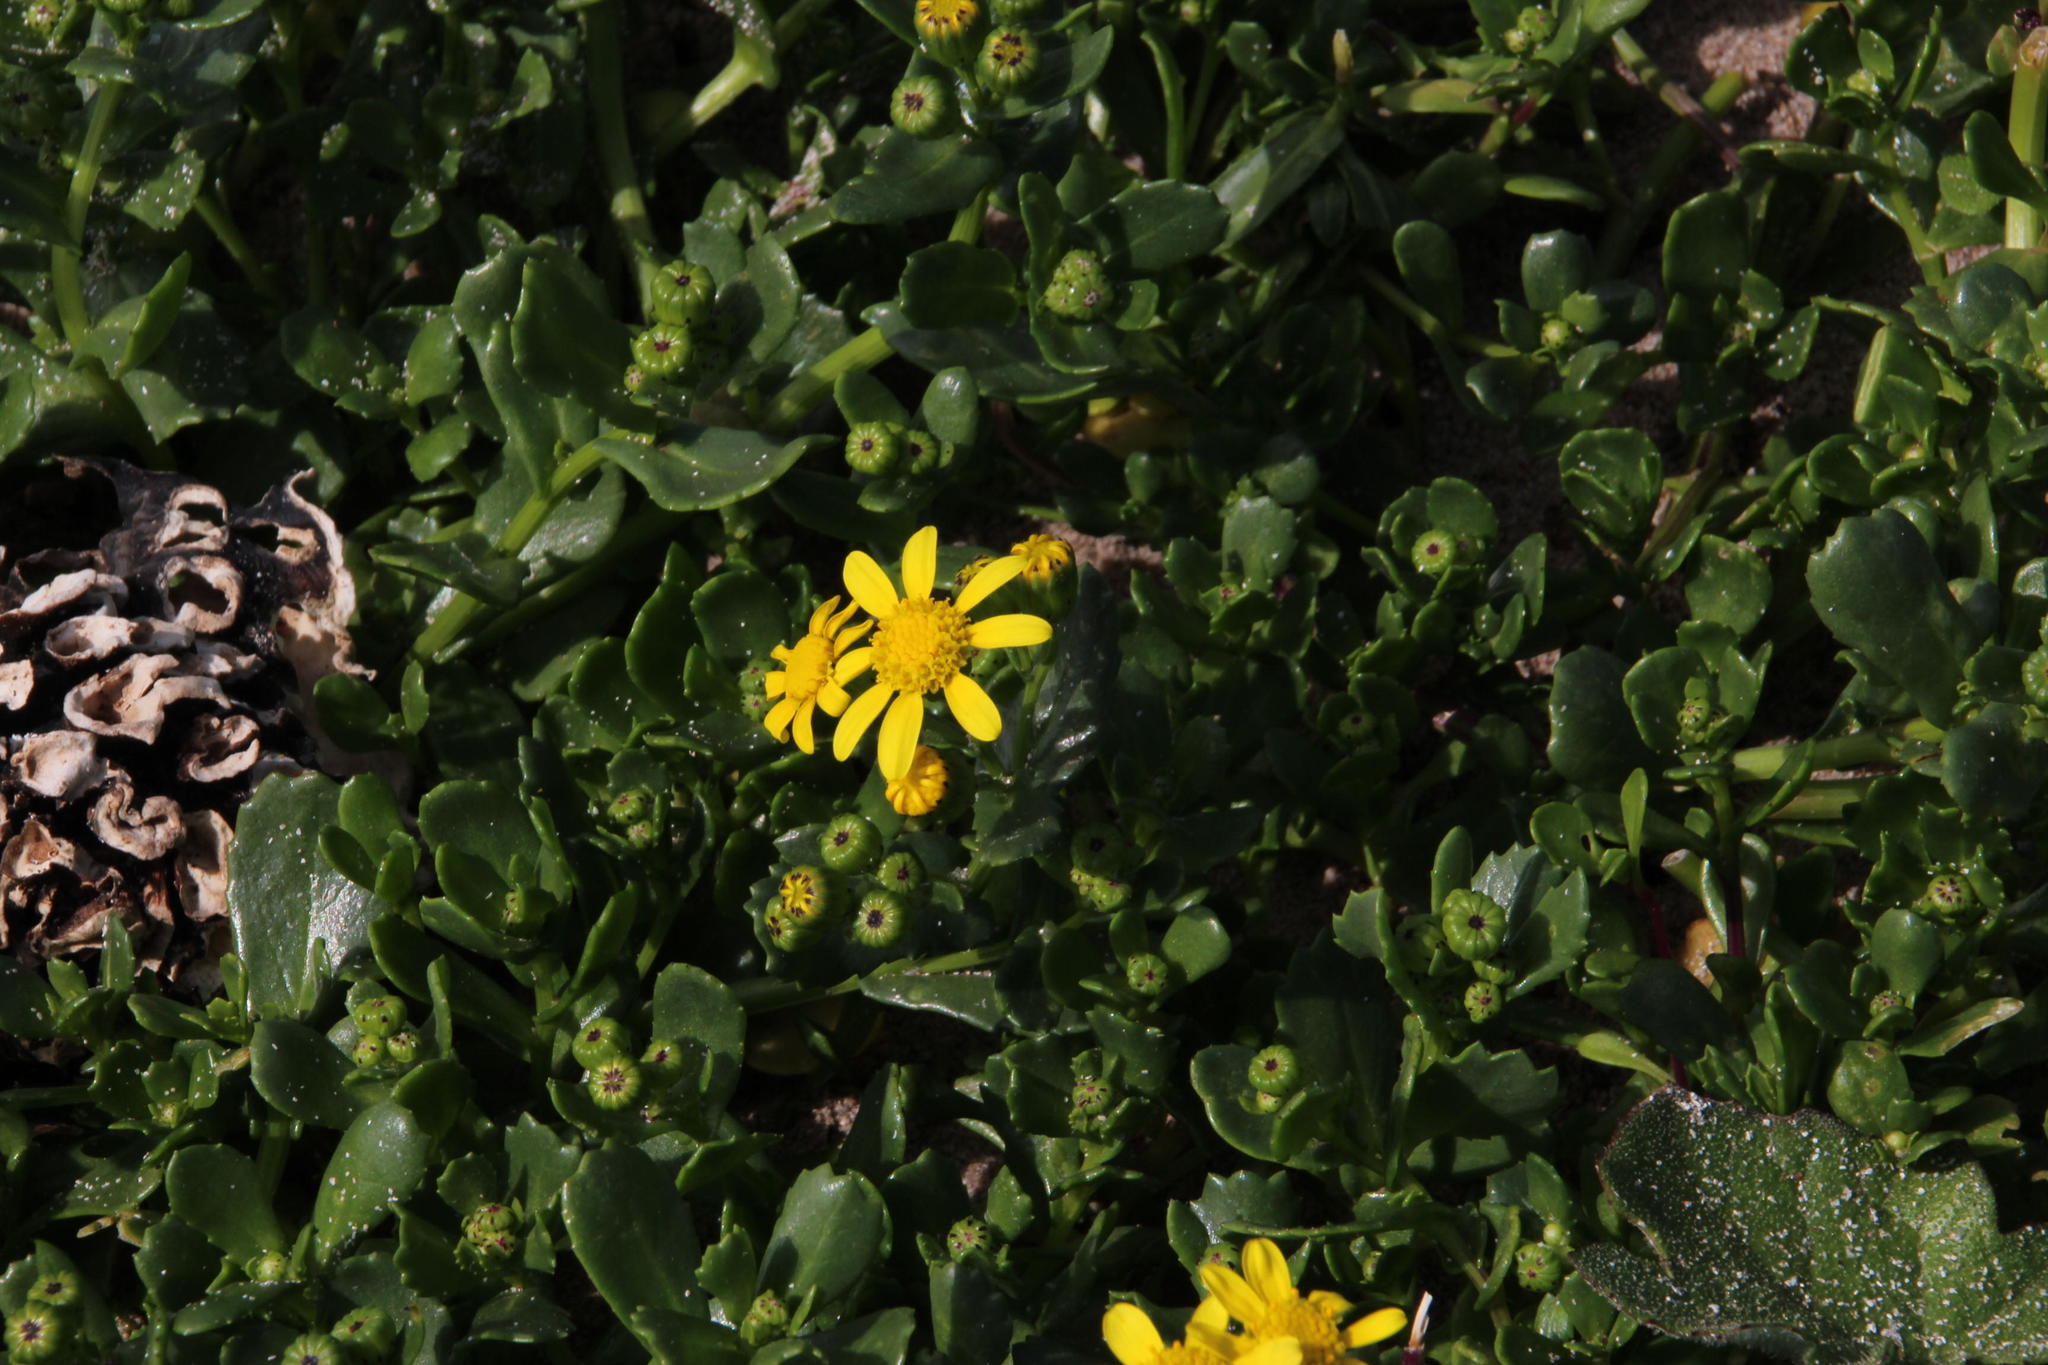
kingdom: Plantae
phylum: Tracheophyta
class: Magnoliopsida
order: Asterales
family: Asteraceae
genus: Senecio
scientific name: Senecio maritimus
